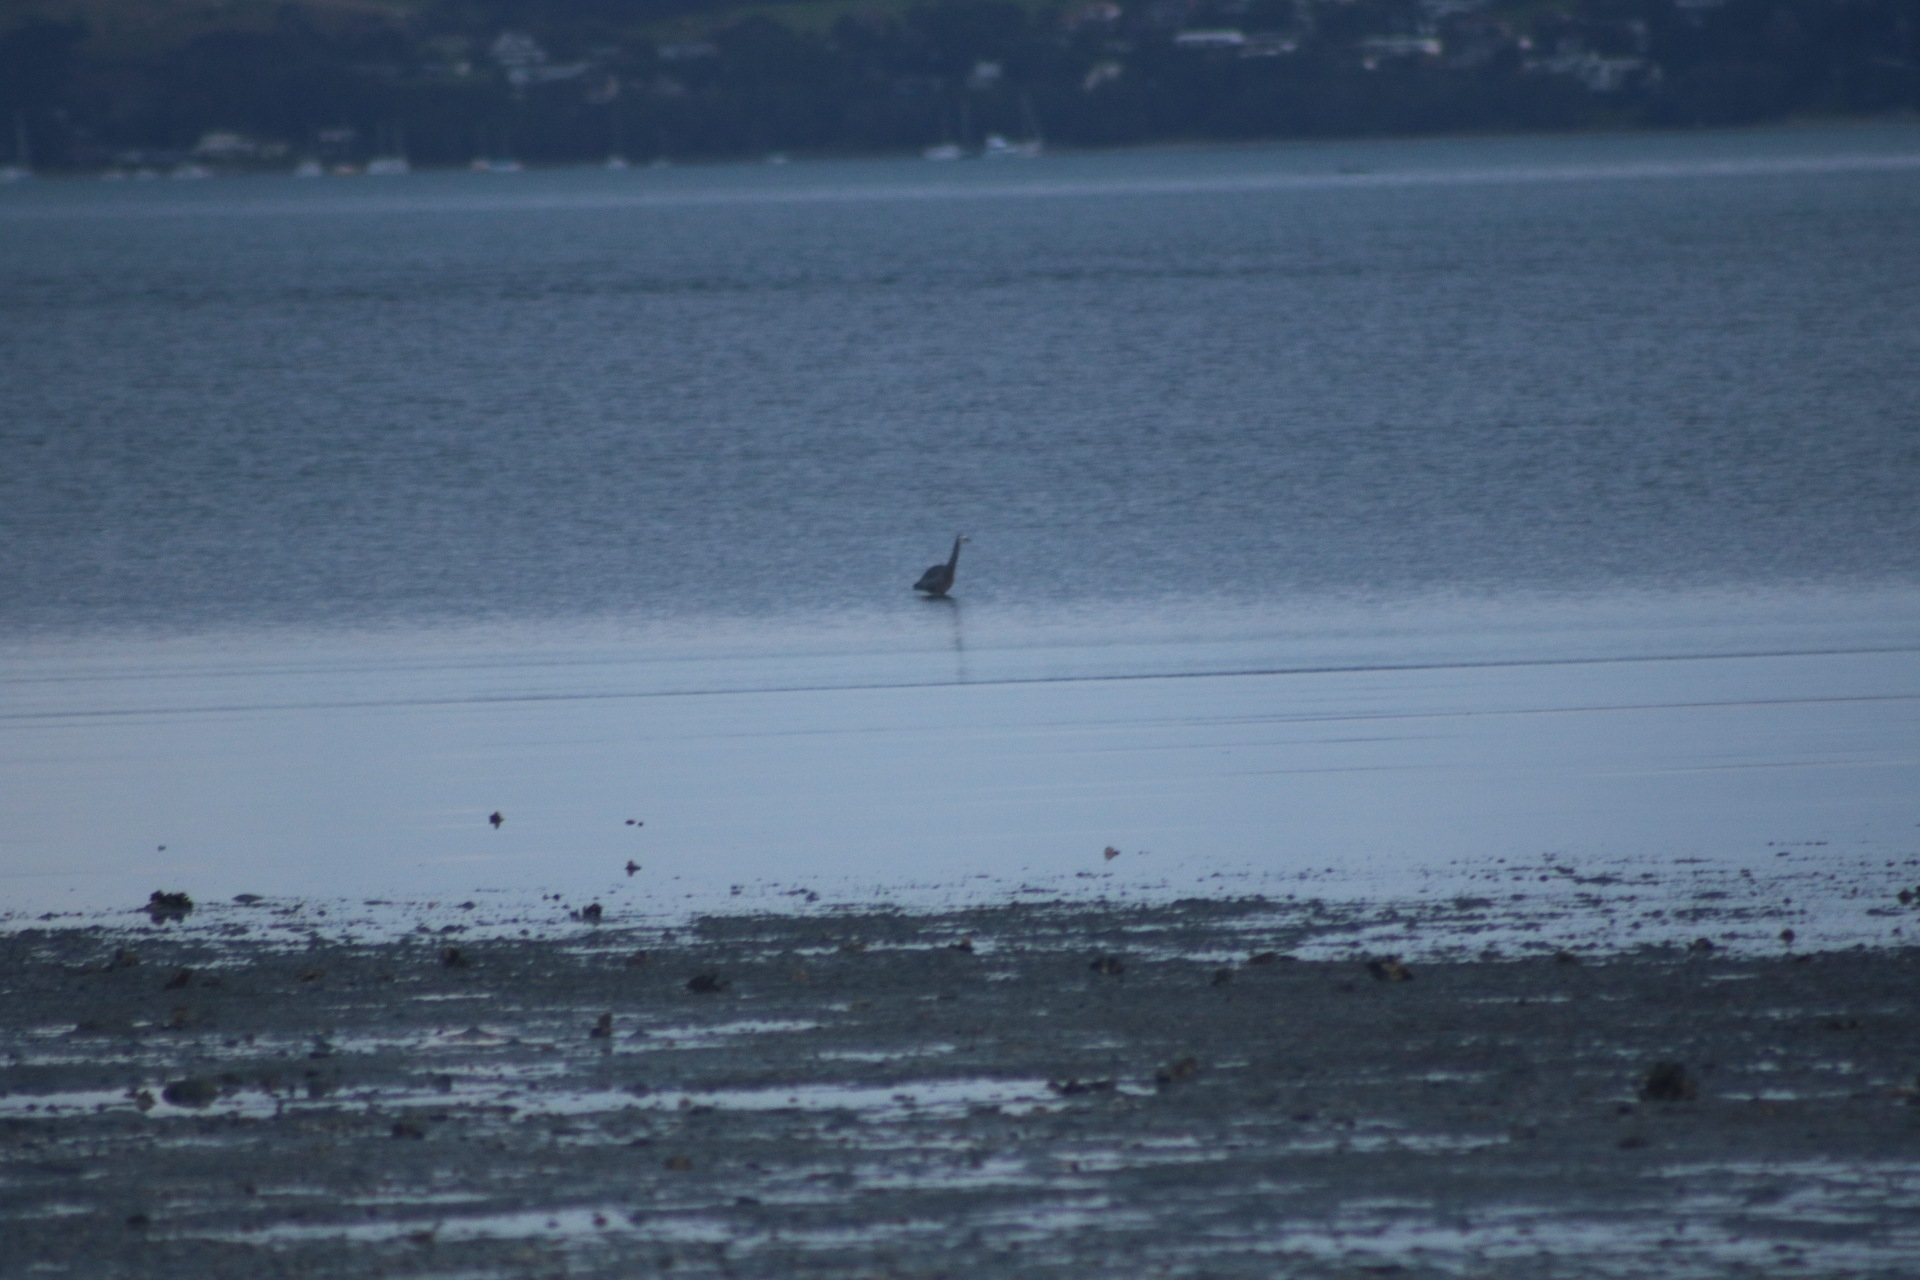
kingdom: Animalia
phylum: Chordata
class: Aves
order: Pelecaniformes
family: Ardeidae
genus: Egretta
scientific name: Egretta novaehollandiae
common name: White-faced heron
